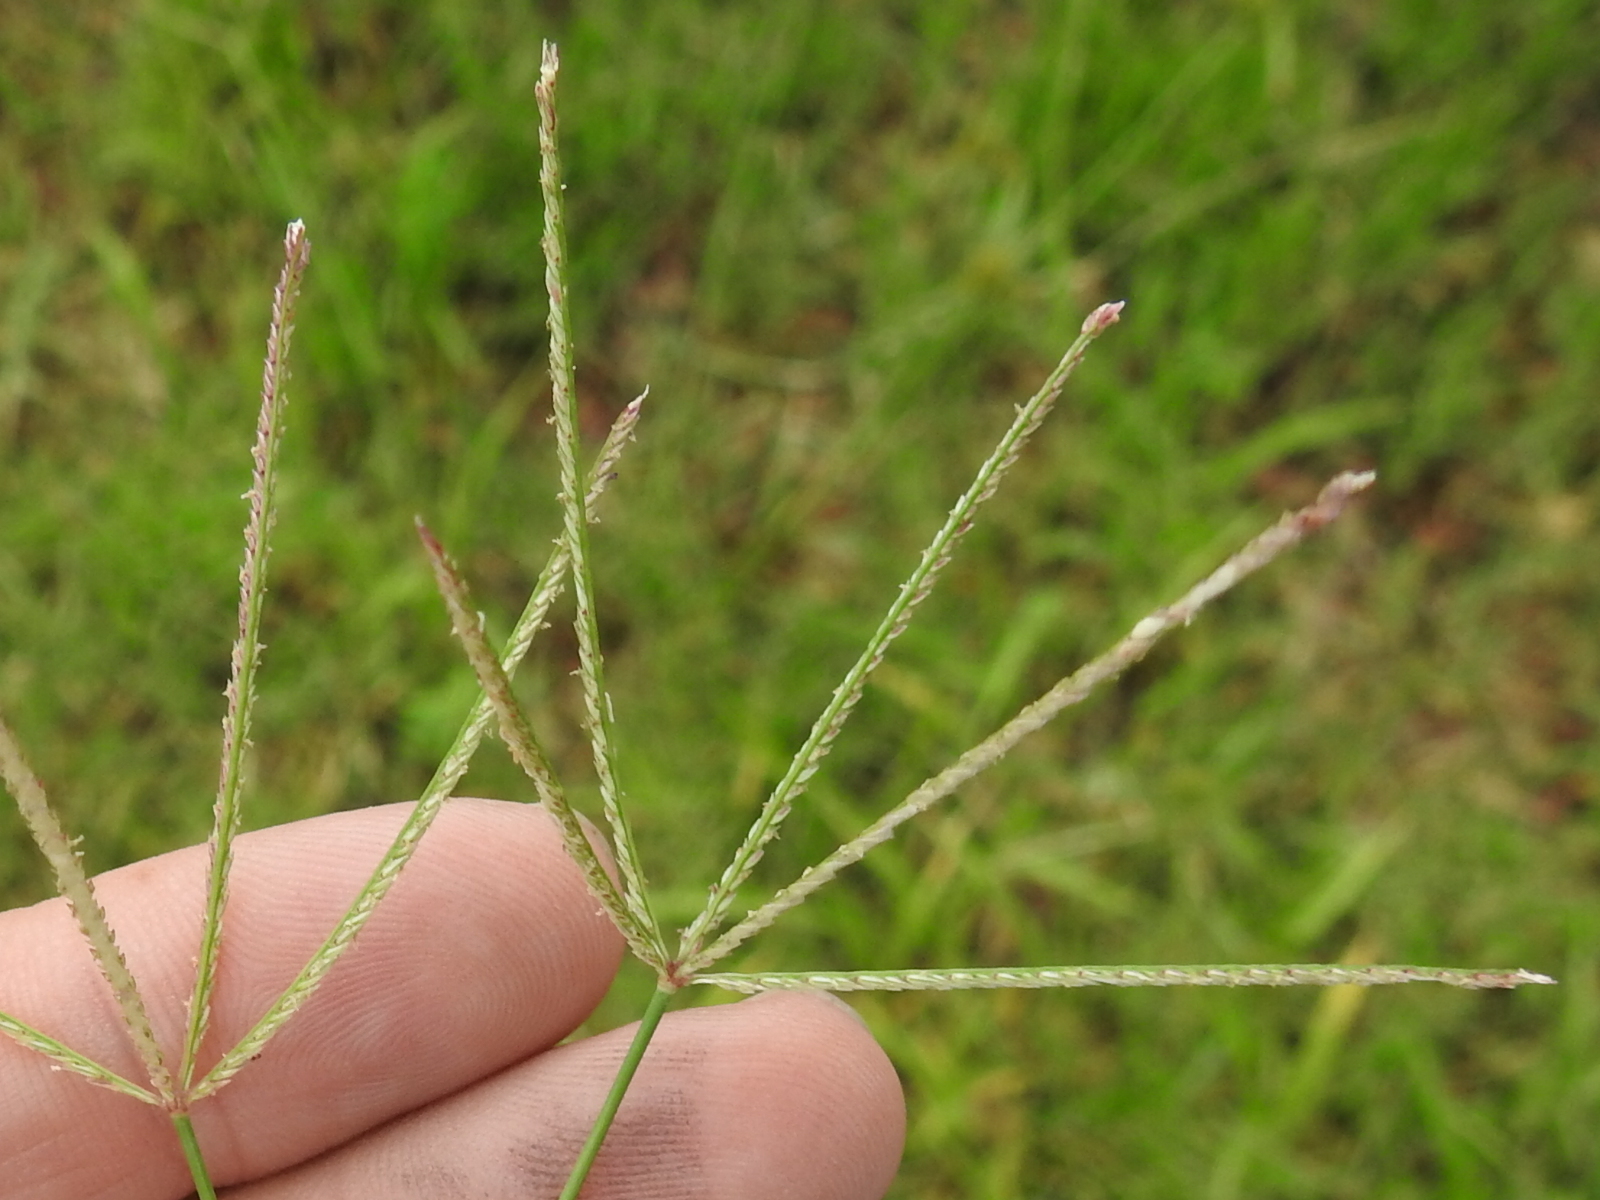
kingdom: Plantae
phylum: Tracheophyta
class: Liliopsida
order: Poales
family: Poaceae
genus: Cynodon
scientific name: Cynodon dactylon
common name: Bermuda grass
